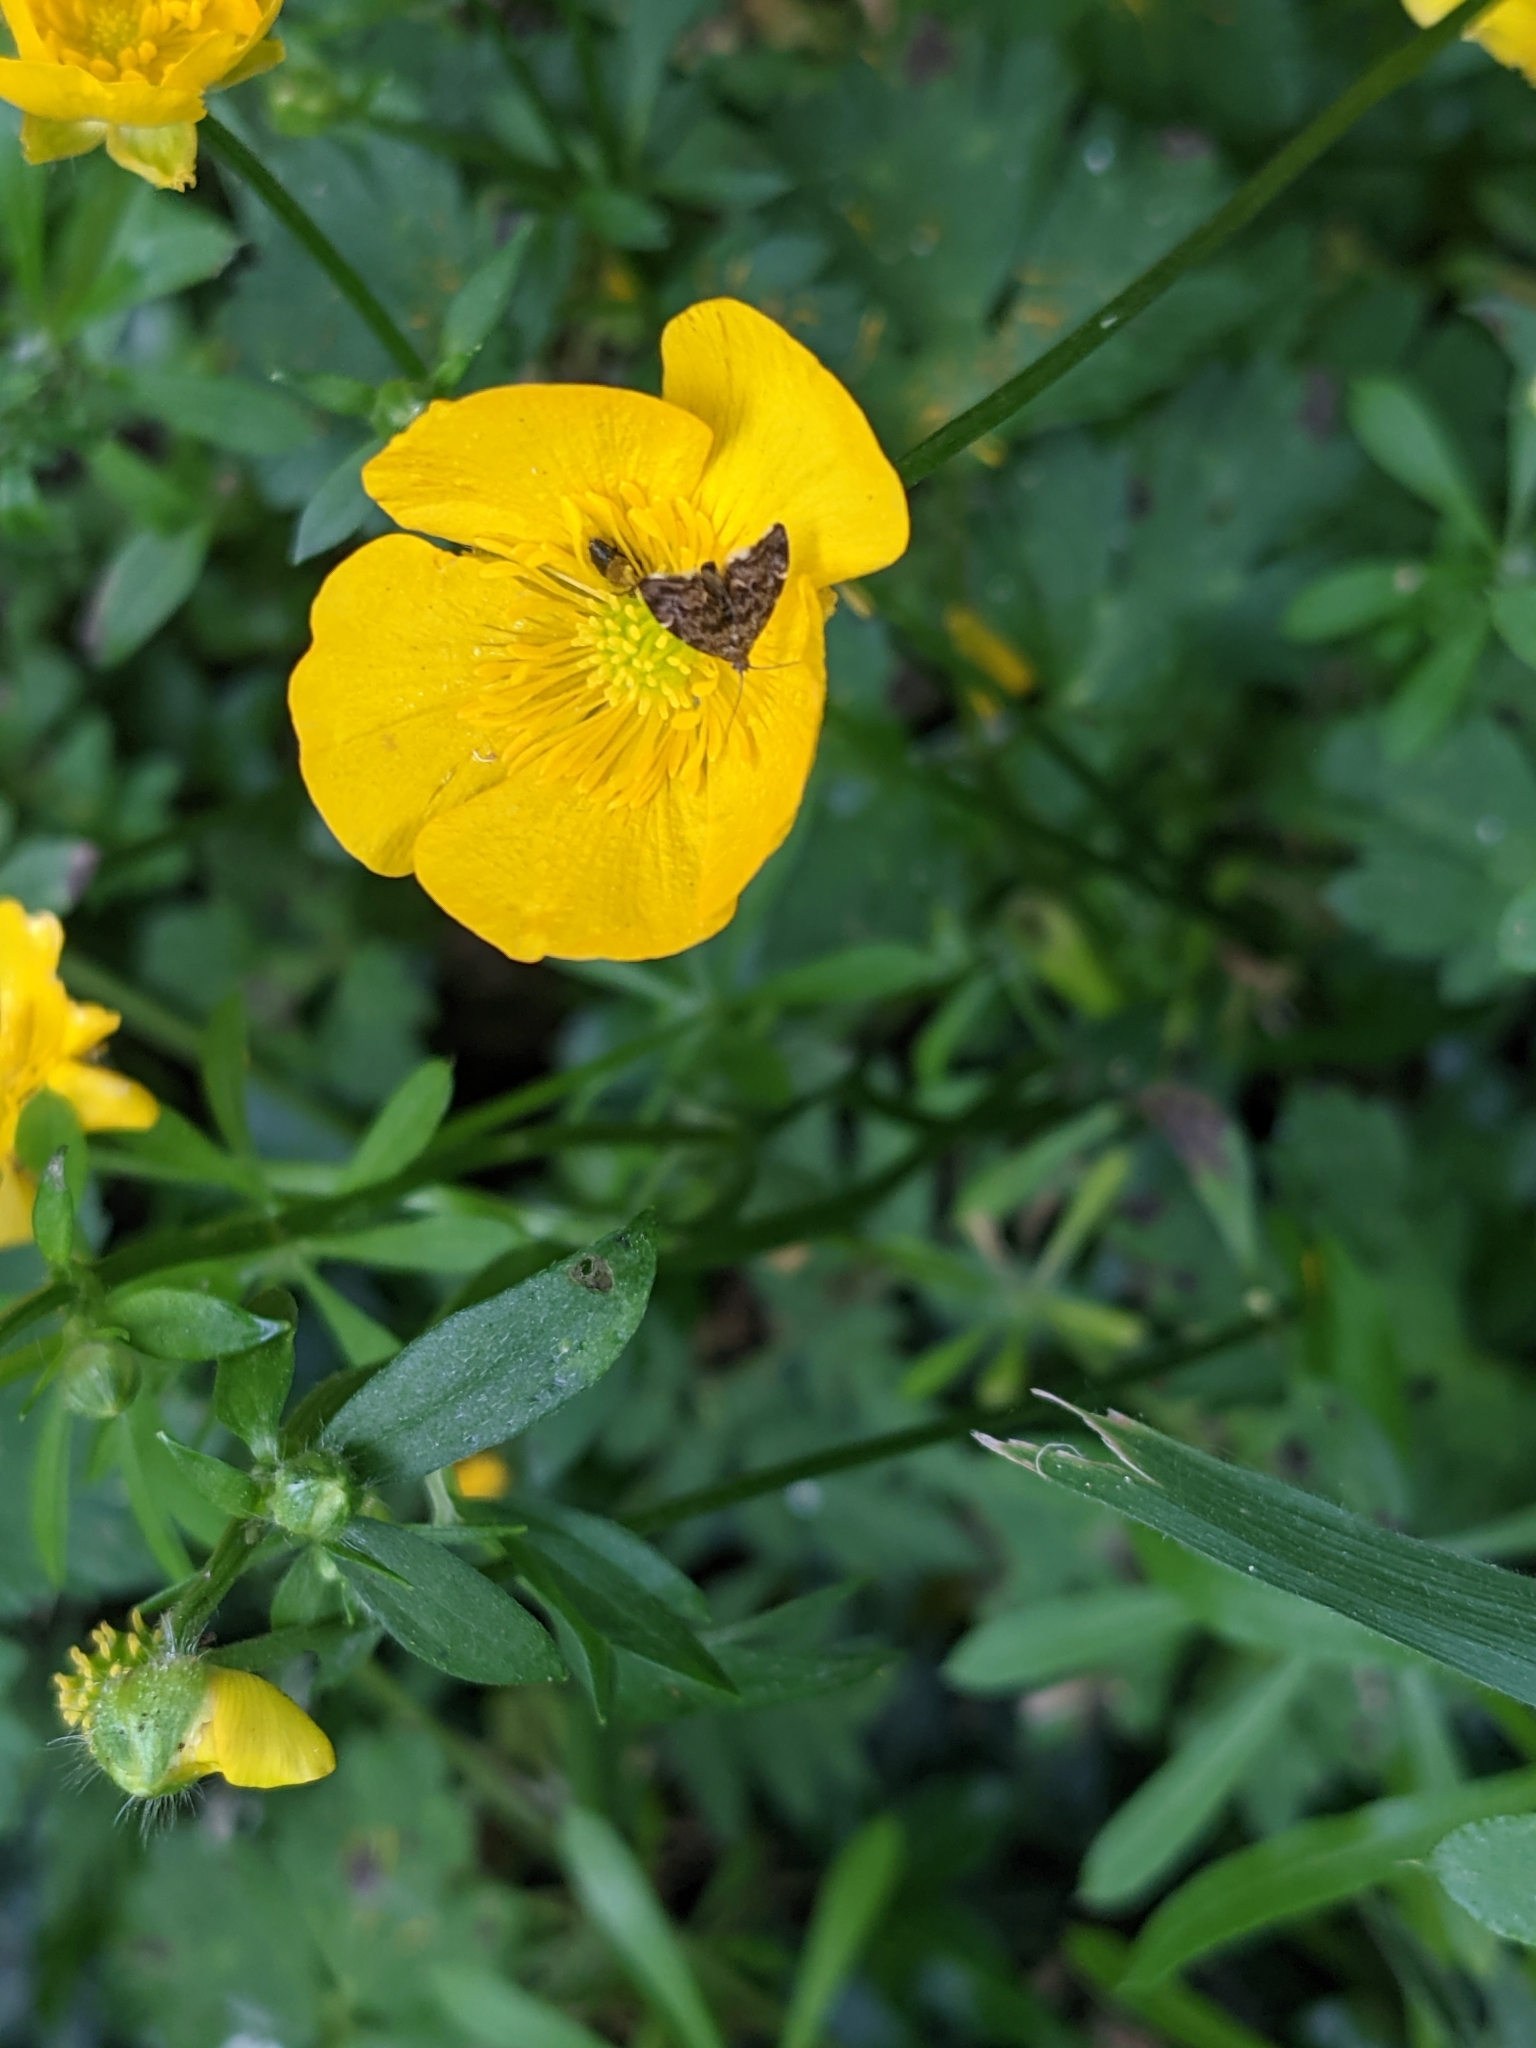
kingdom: Animalia
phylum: Arthropoda
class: Insecta
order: Lepidoptera
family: Choreutidae
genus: Anthophila
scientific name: Anthophila fabriciana
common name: Nettle-tap
